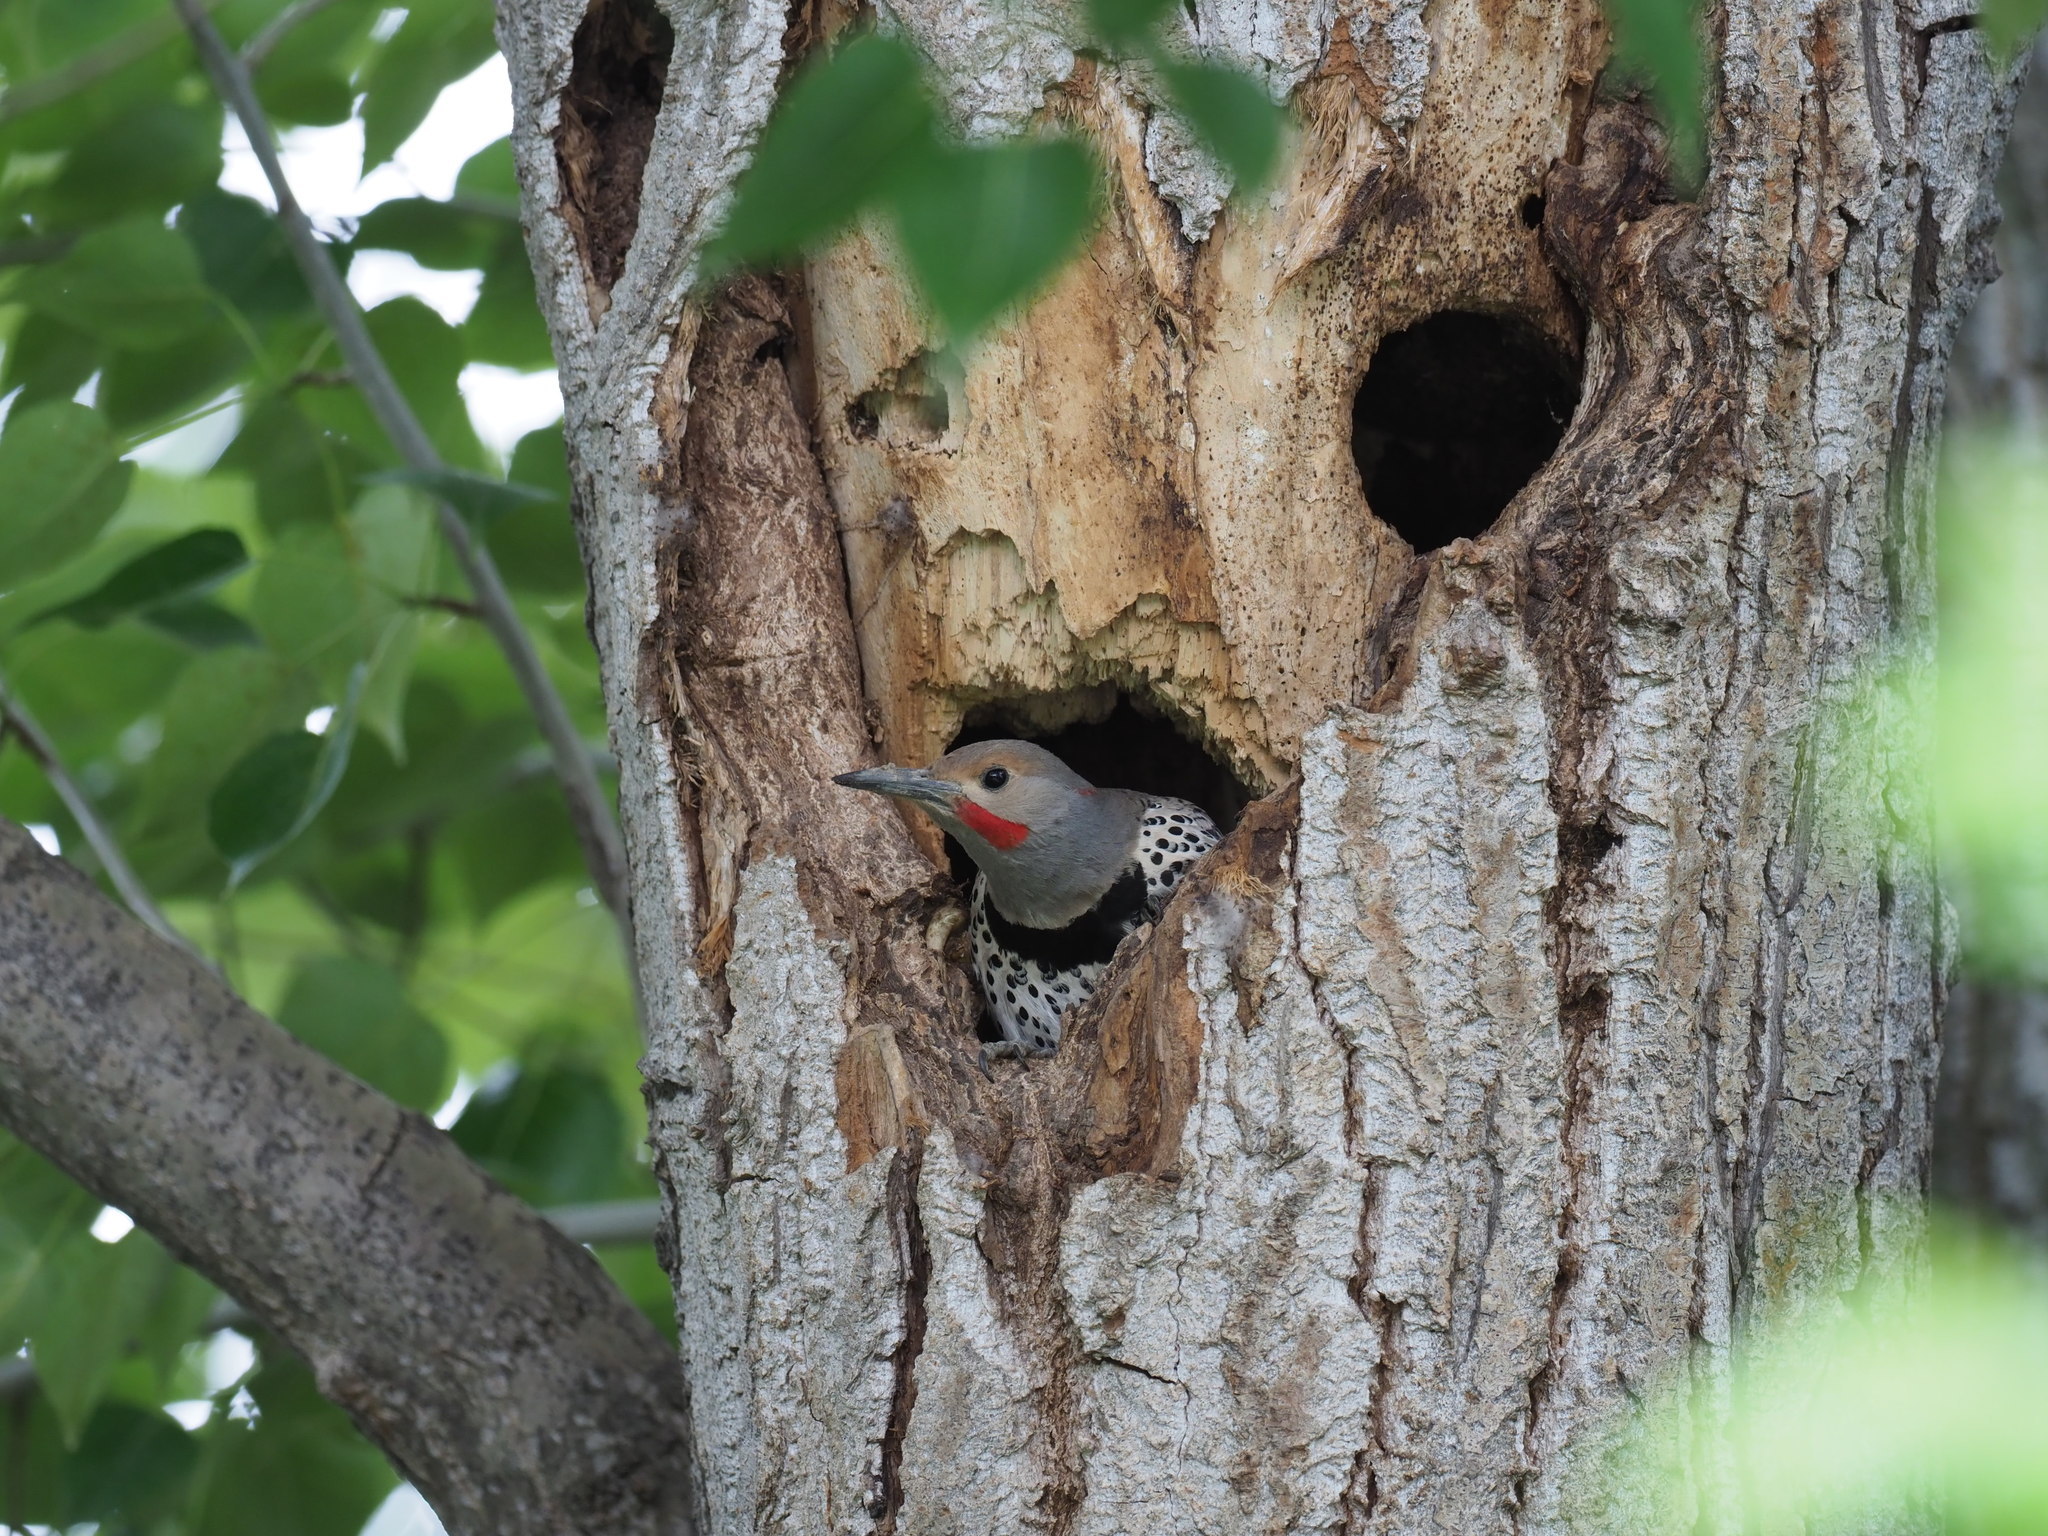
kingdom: Animalia
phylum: Chordata
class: Aves
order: Piciformes
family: Picidae
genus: Colaptes
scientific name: Colaptes auratus
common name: Northern flicker
